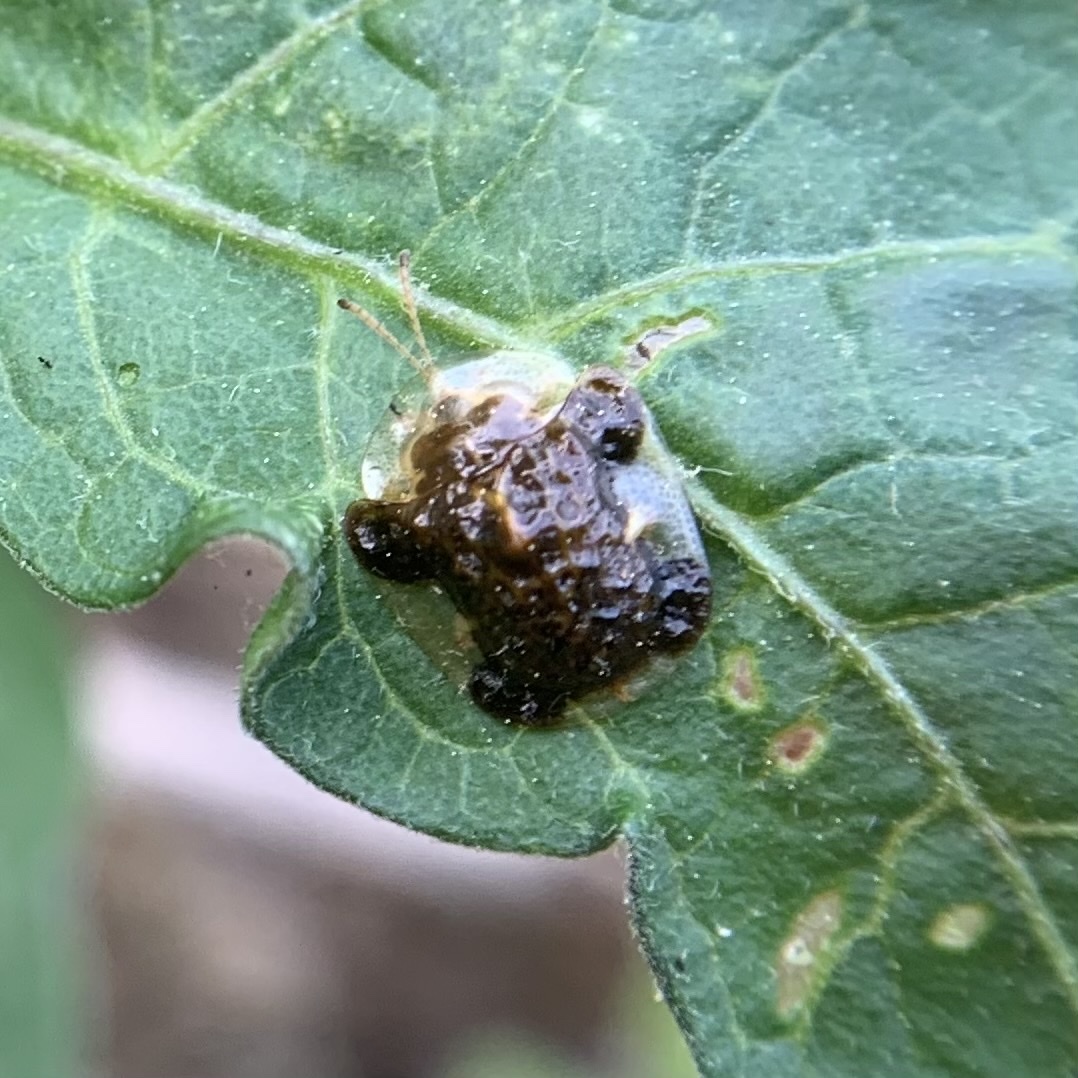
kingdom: Animalia
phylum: Arthropoda
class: Insecta
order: Coleoptera
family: Chrysomelidae
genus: Helocassis
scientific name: Helocassis clavata
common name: Clavate tortoise beetle
